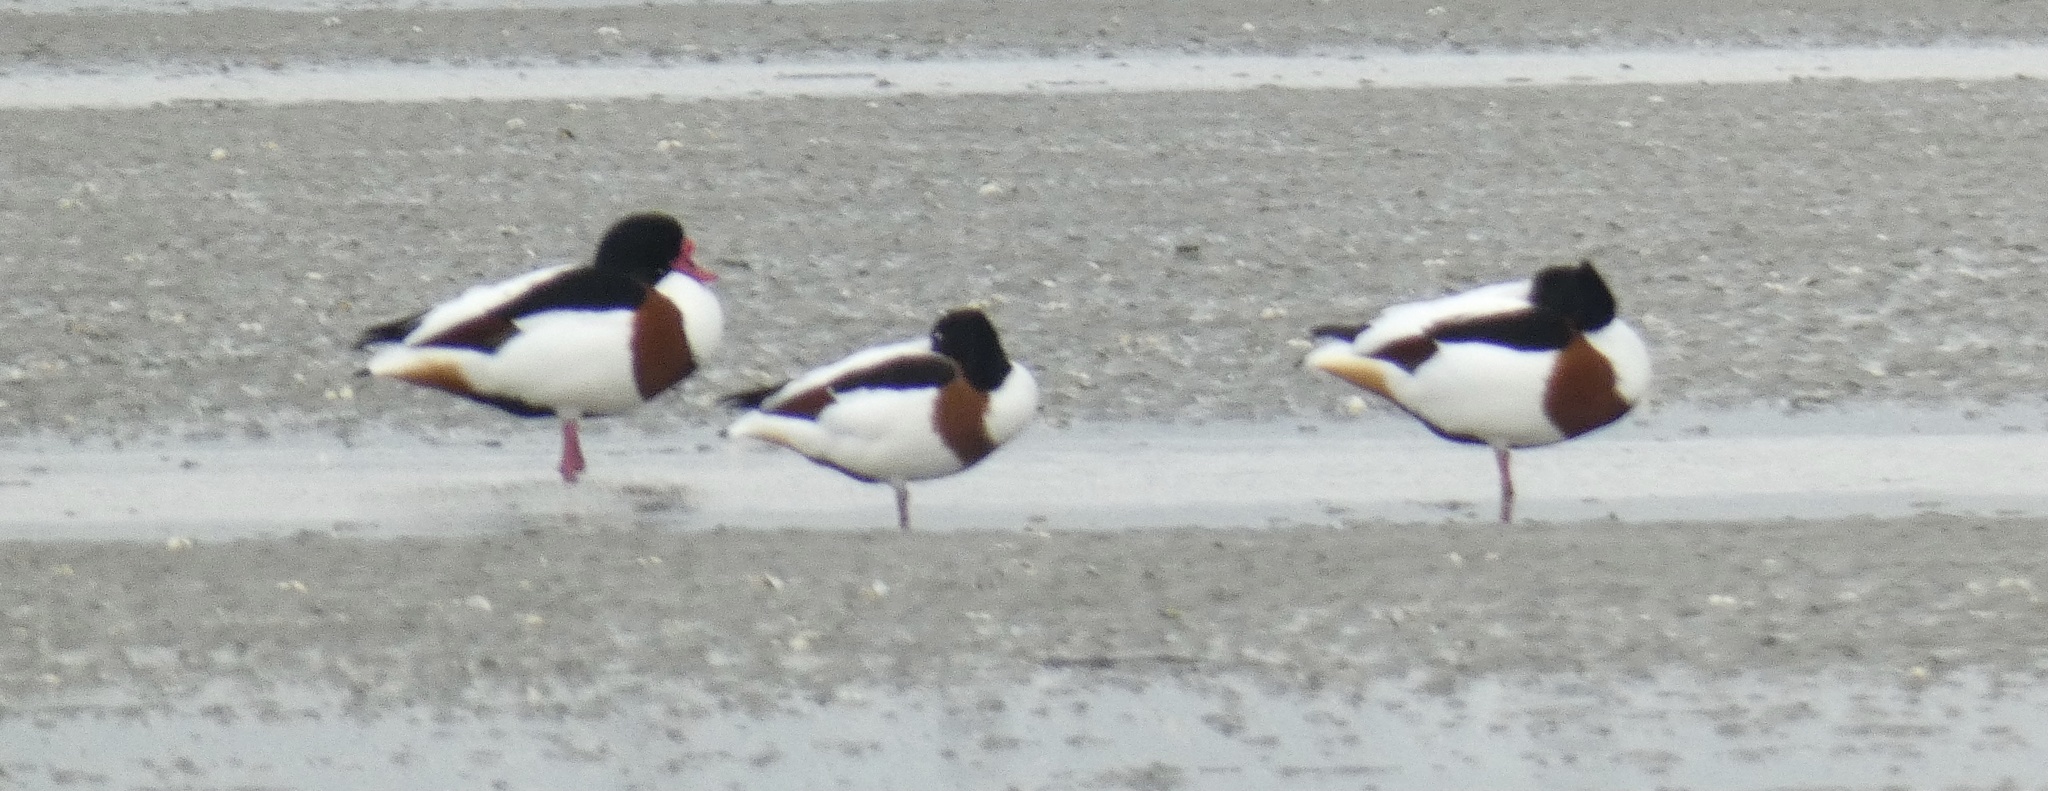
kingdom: Animalia
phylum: Chordata
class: Aves
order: Anseriformes
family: Anatidae
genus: Tadorna
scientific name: Tadorna tadorna
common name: Common shelduck
